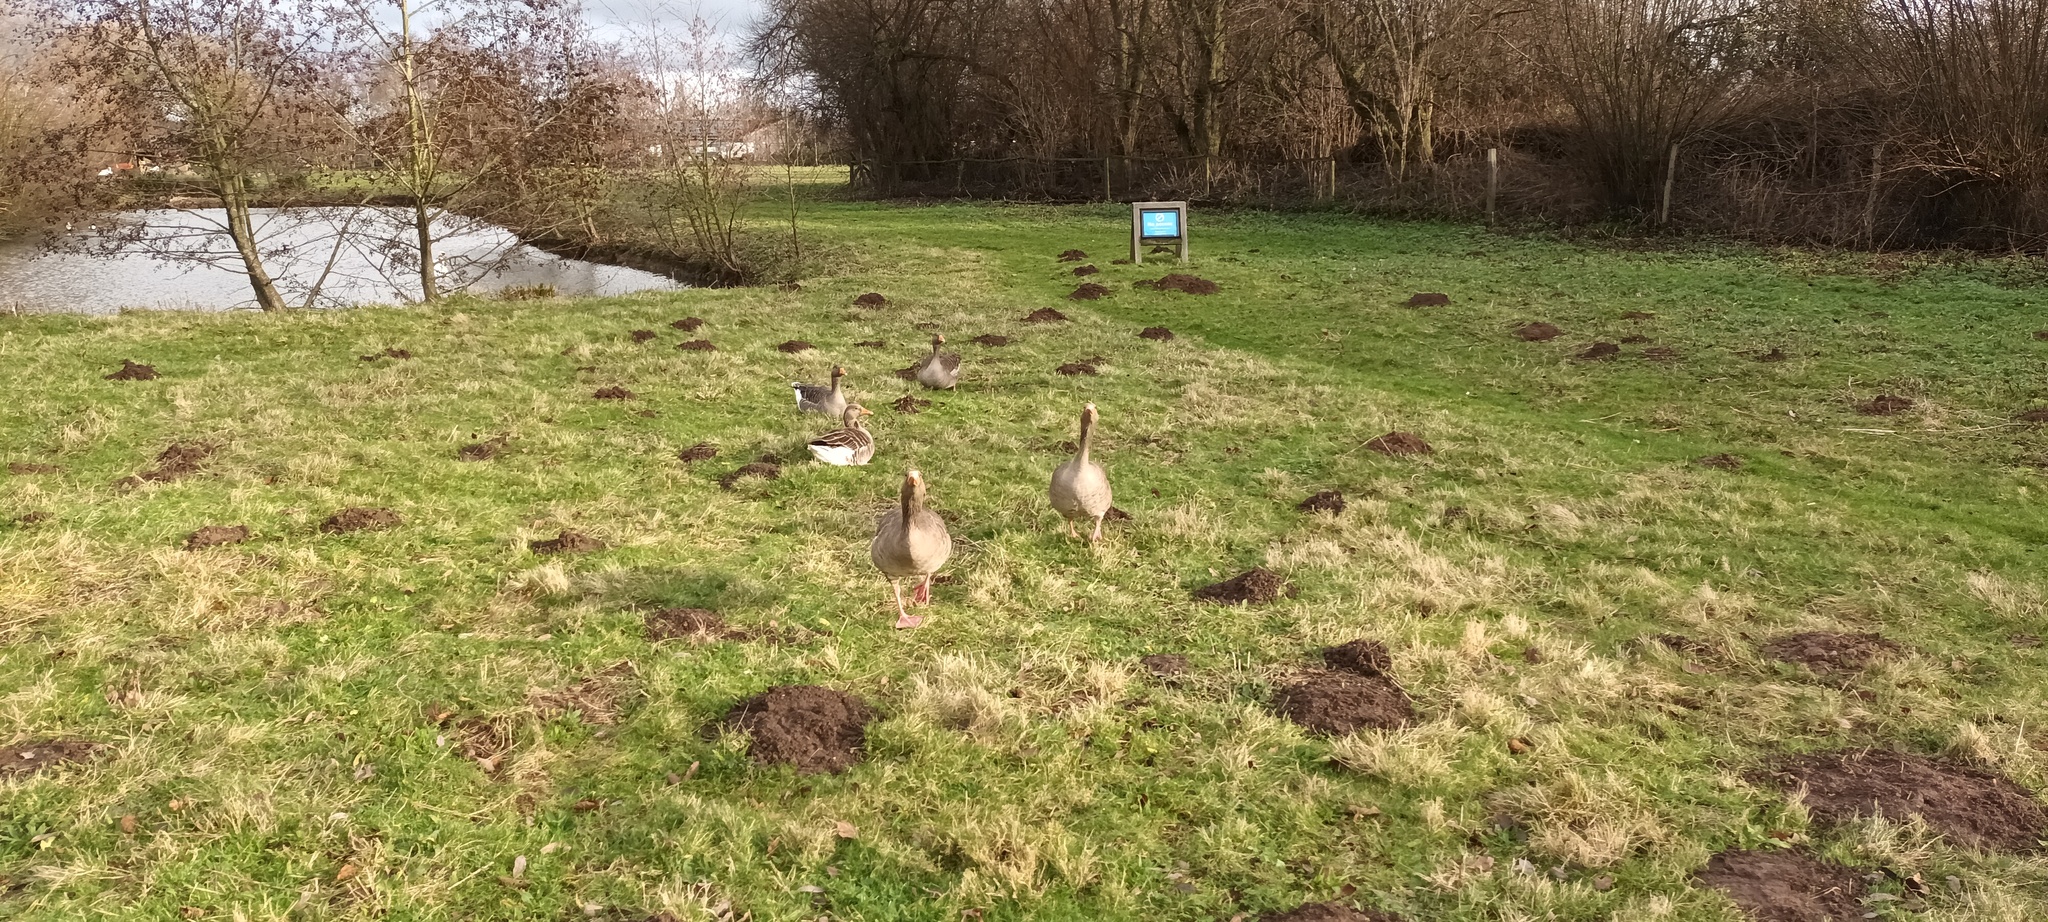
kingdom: Animalia
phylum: Chordata
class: Aves
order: Anseriformes
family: Anatidae
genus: Anser
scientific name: Anser anser
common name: Greylag goose
